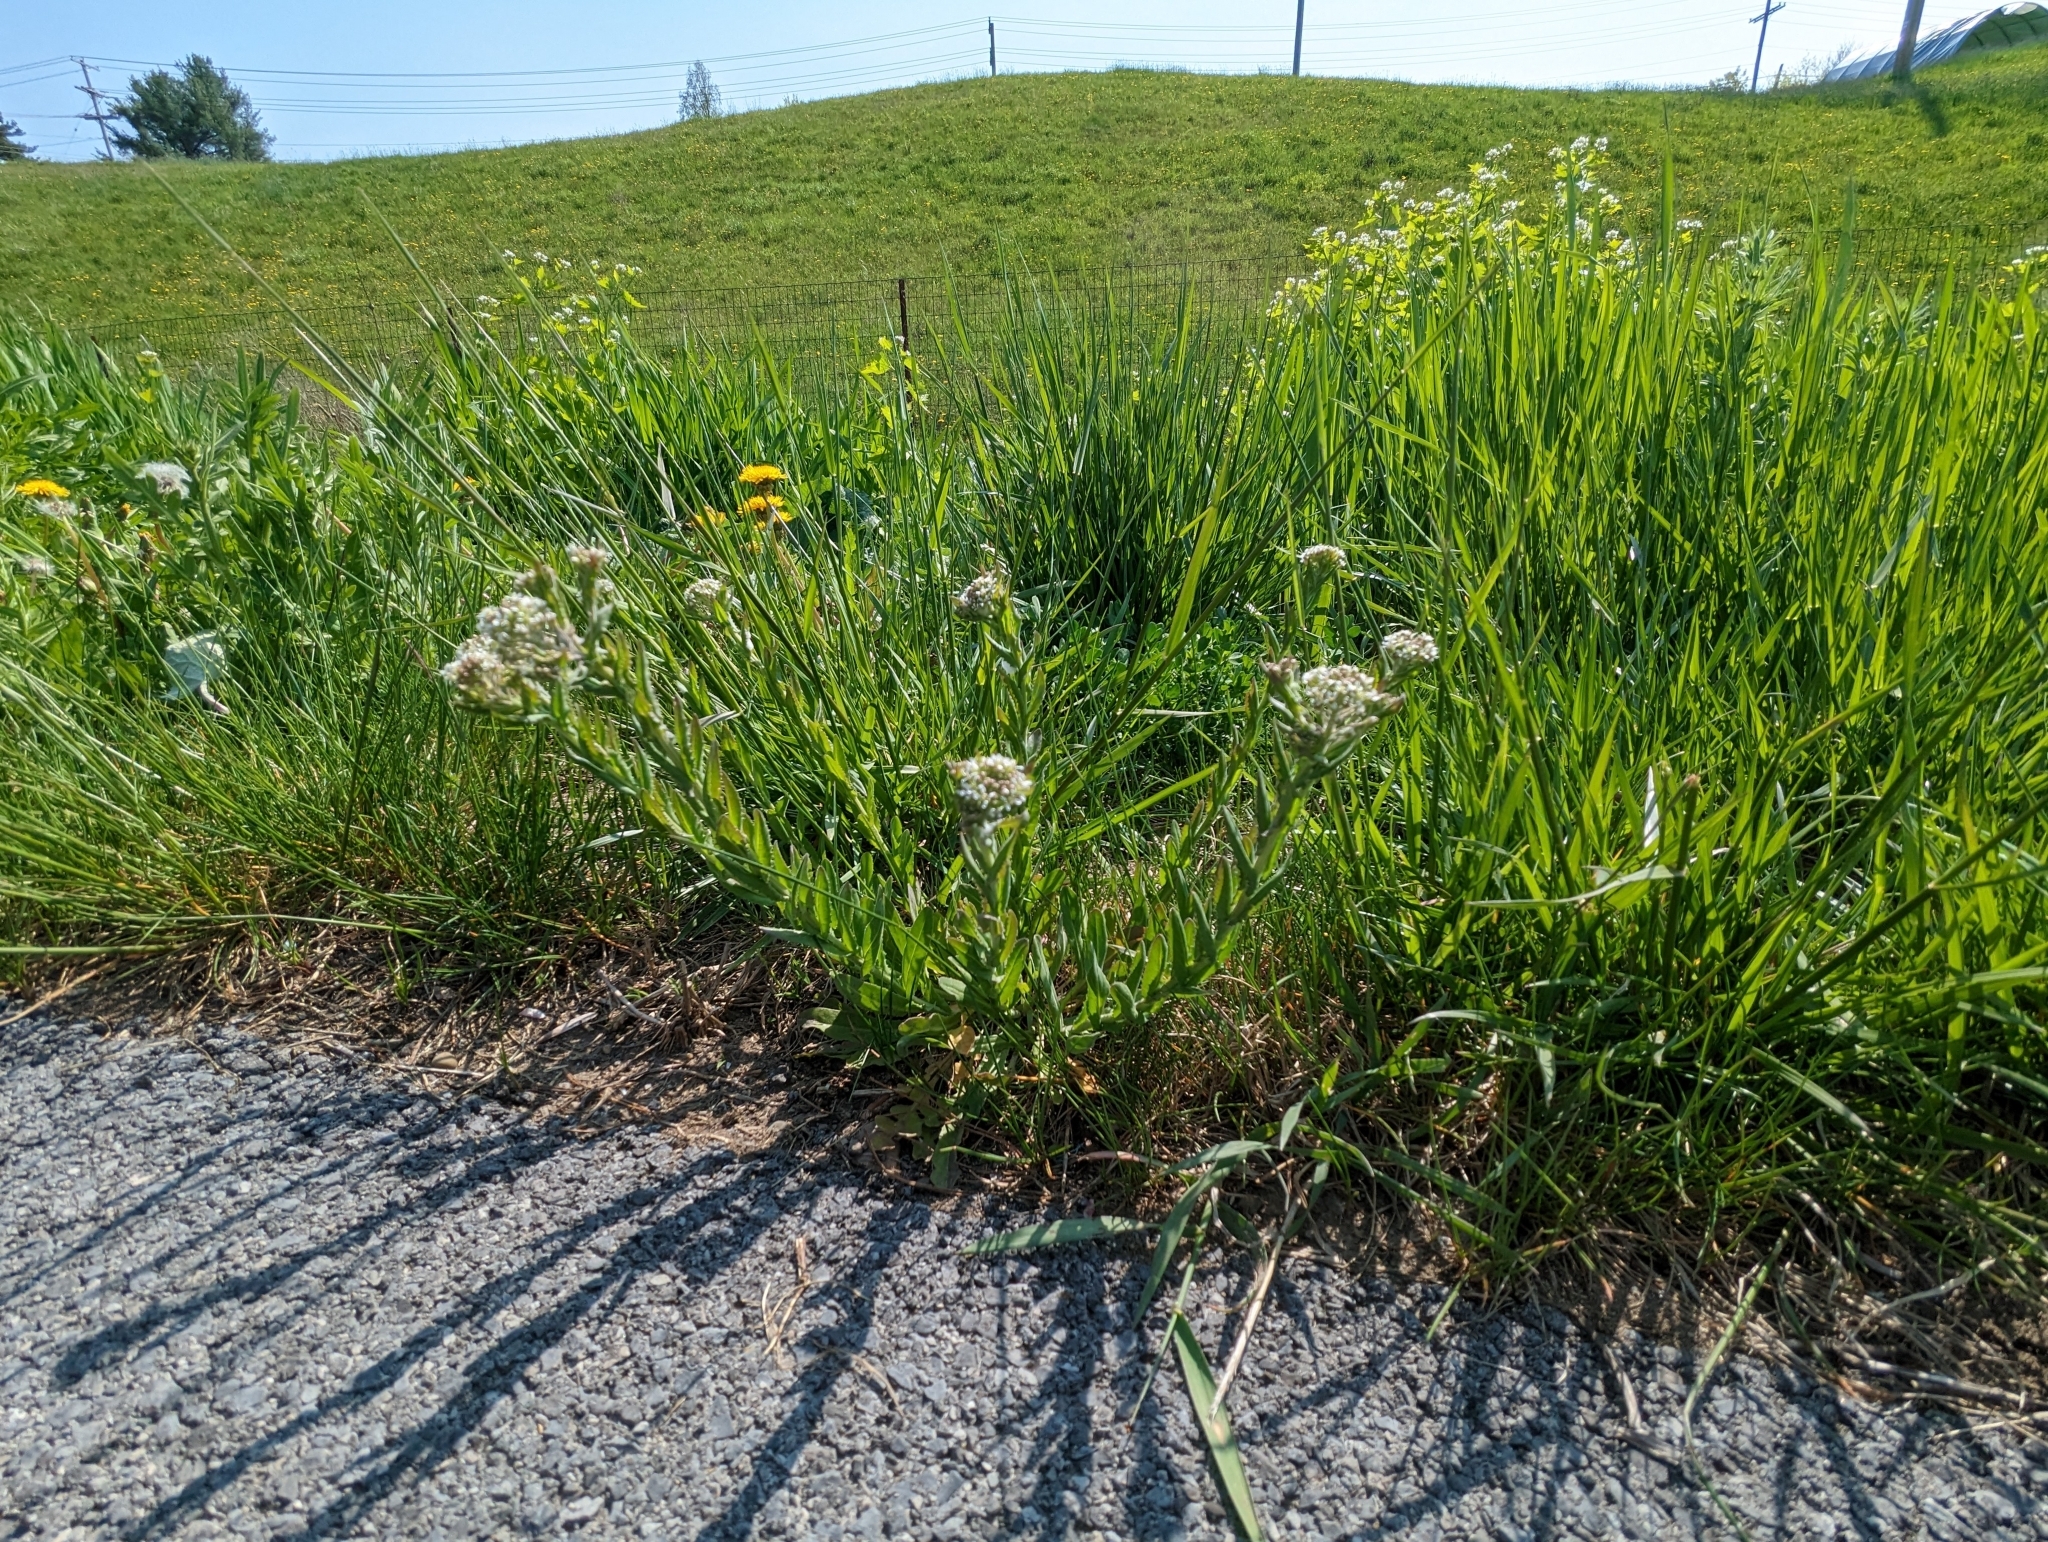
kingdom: Plantae
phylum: Tracheophyta
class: Magnoliopsida
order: Brassicales
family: Brassicaceae
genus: Lepidium
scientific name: Lepidium campestre
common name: Field pepperwort
